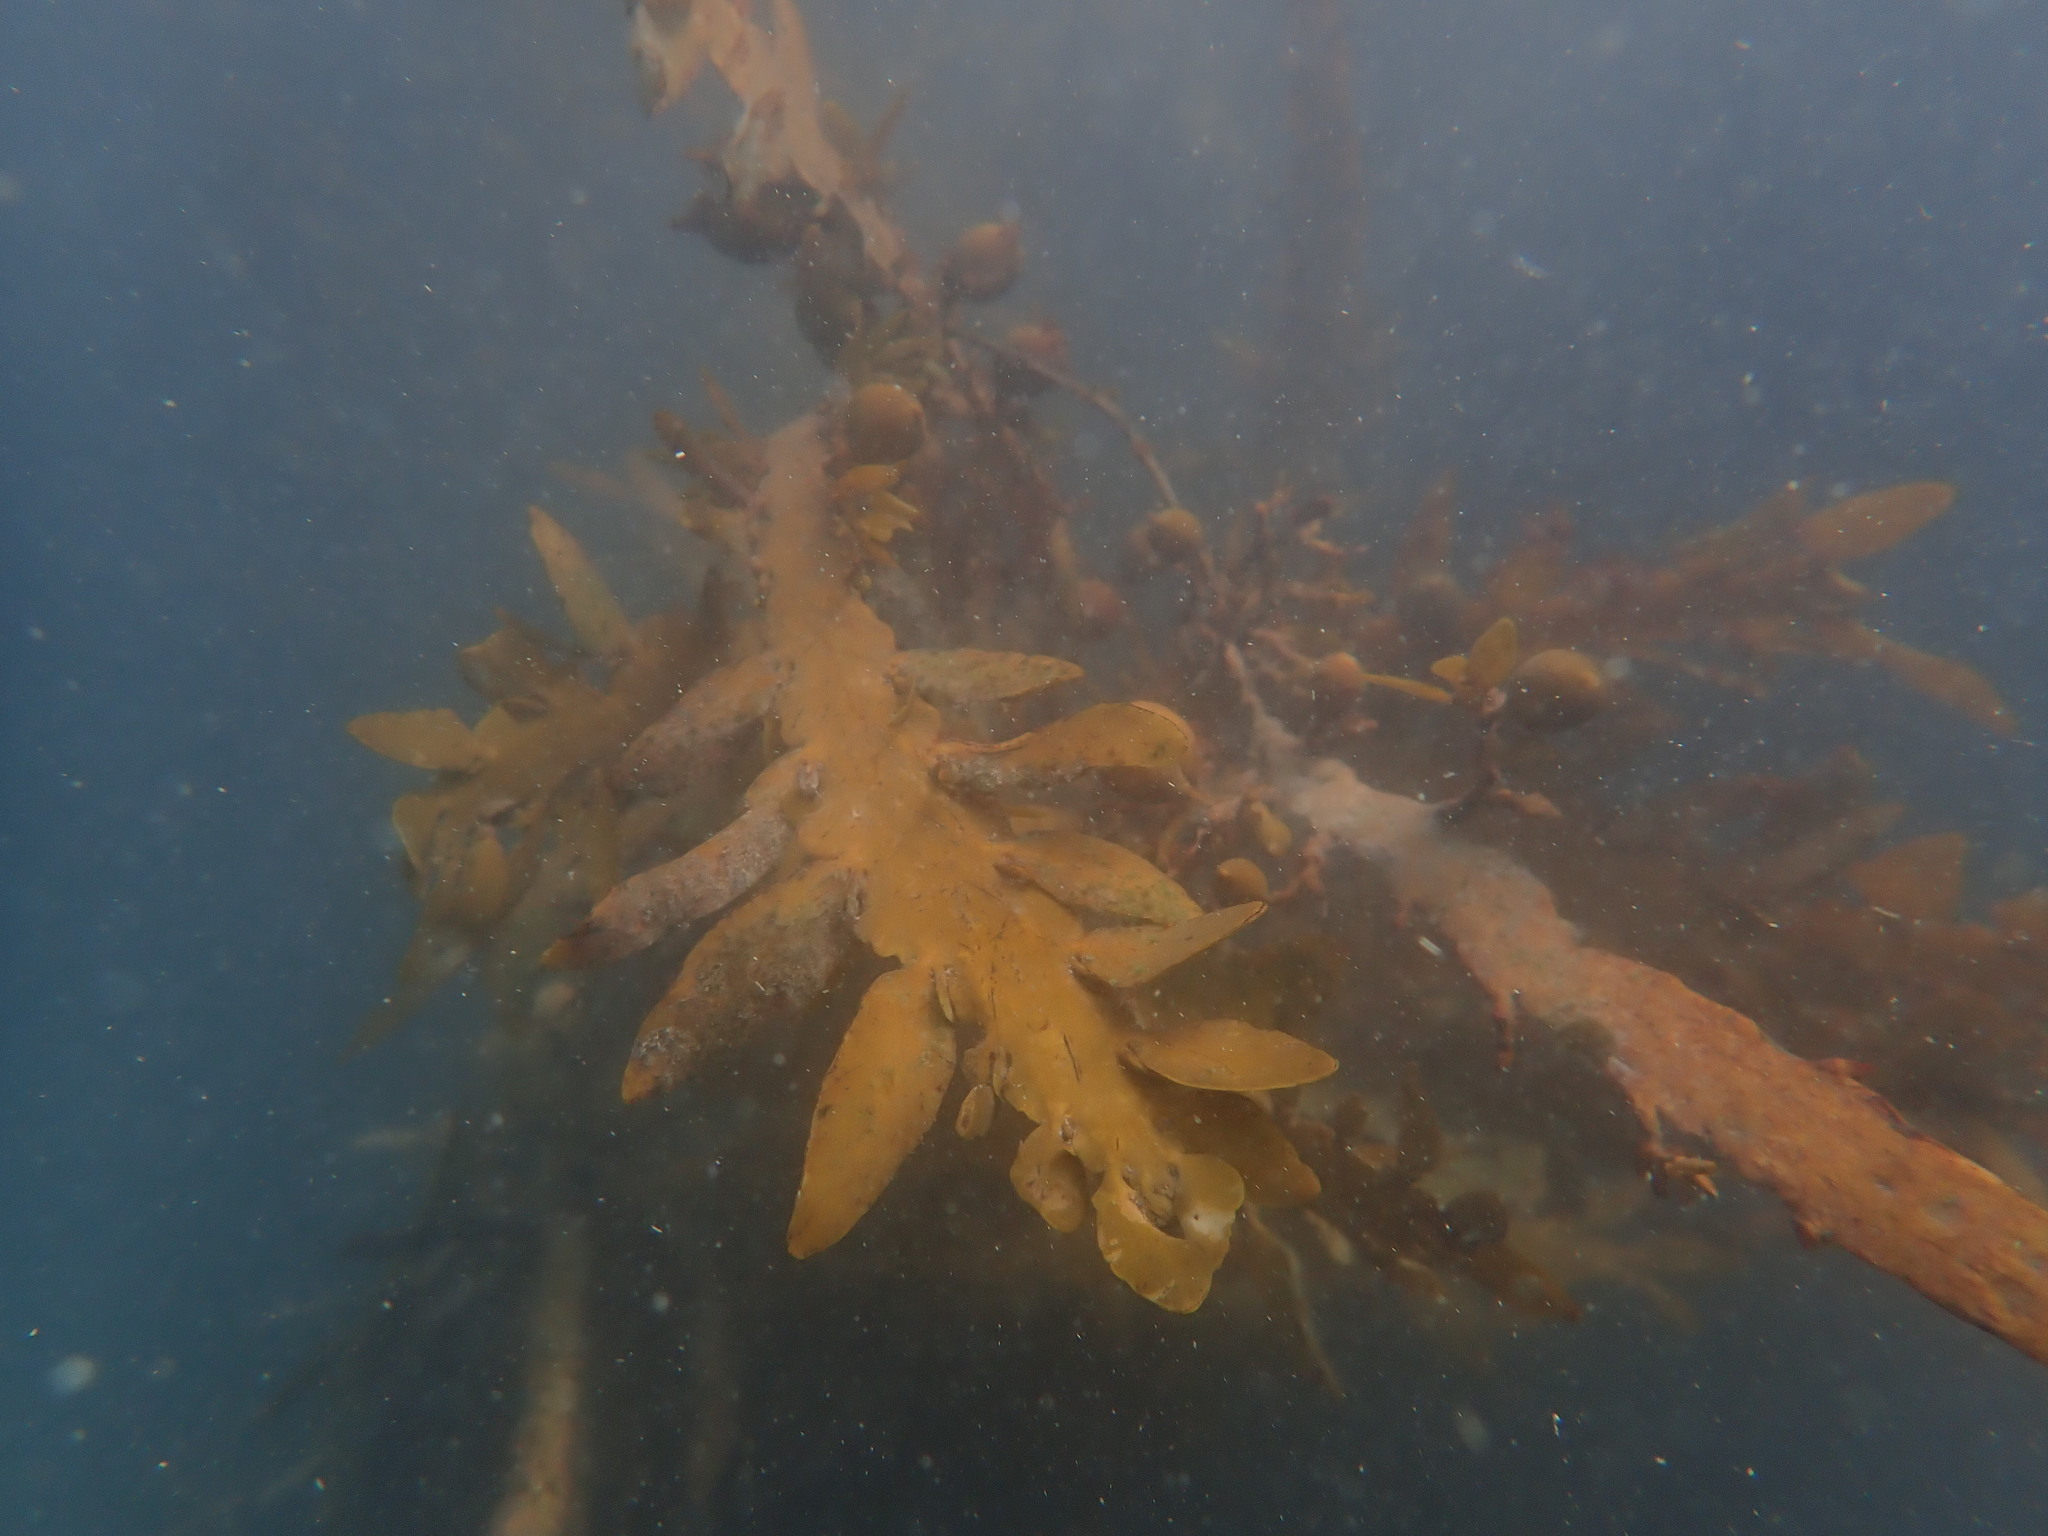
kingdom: Chromista
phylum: Ochrophyta
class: Phaeophyceae
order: Fucales
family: Sargassaceae
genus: Carpophyllum
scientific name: Carpophyllum maschalocarpum
